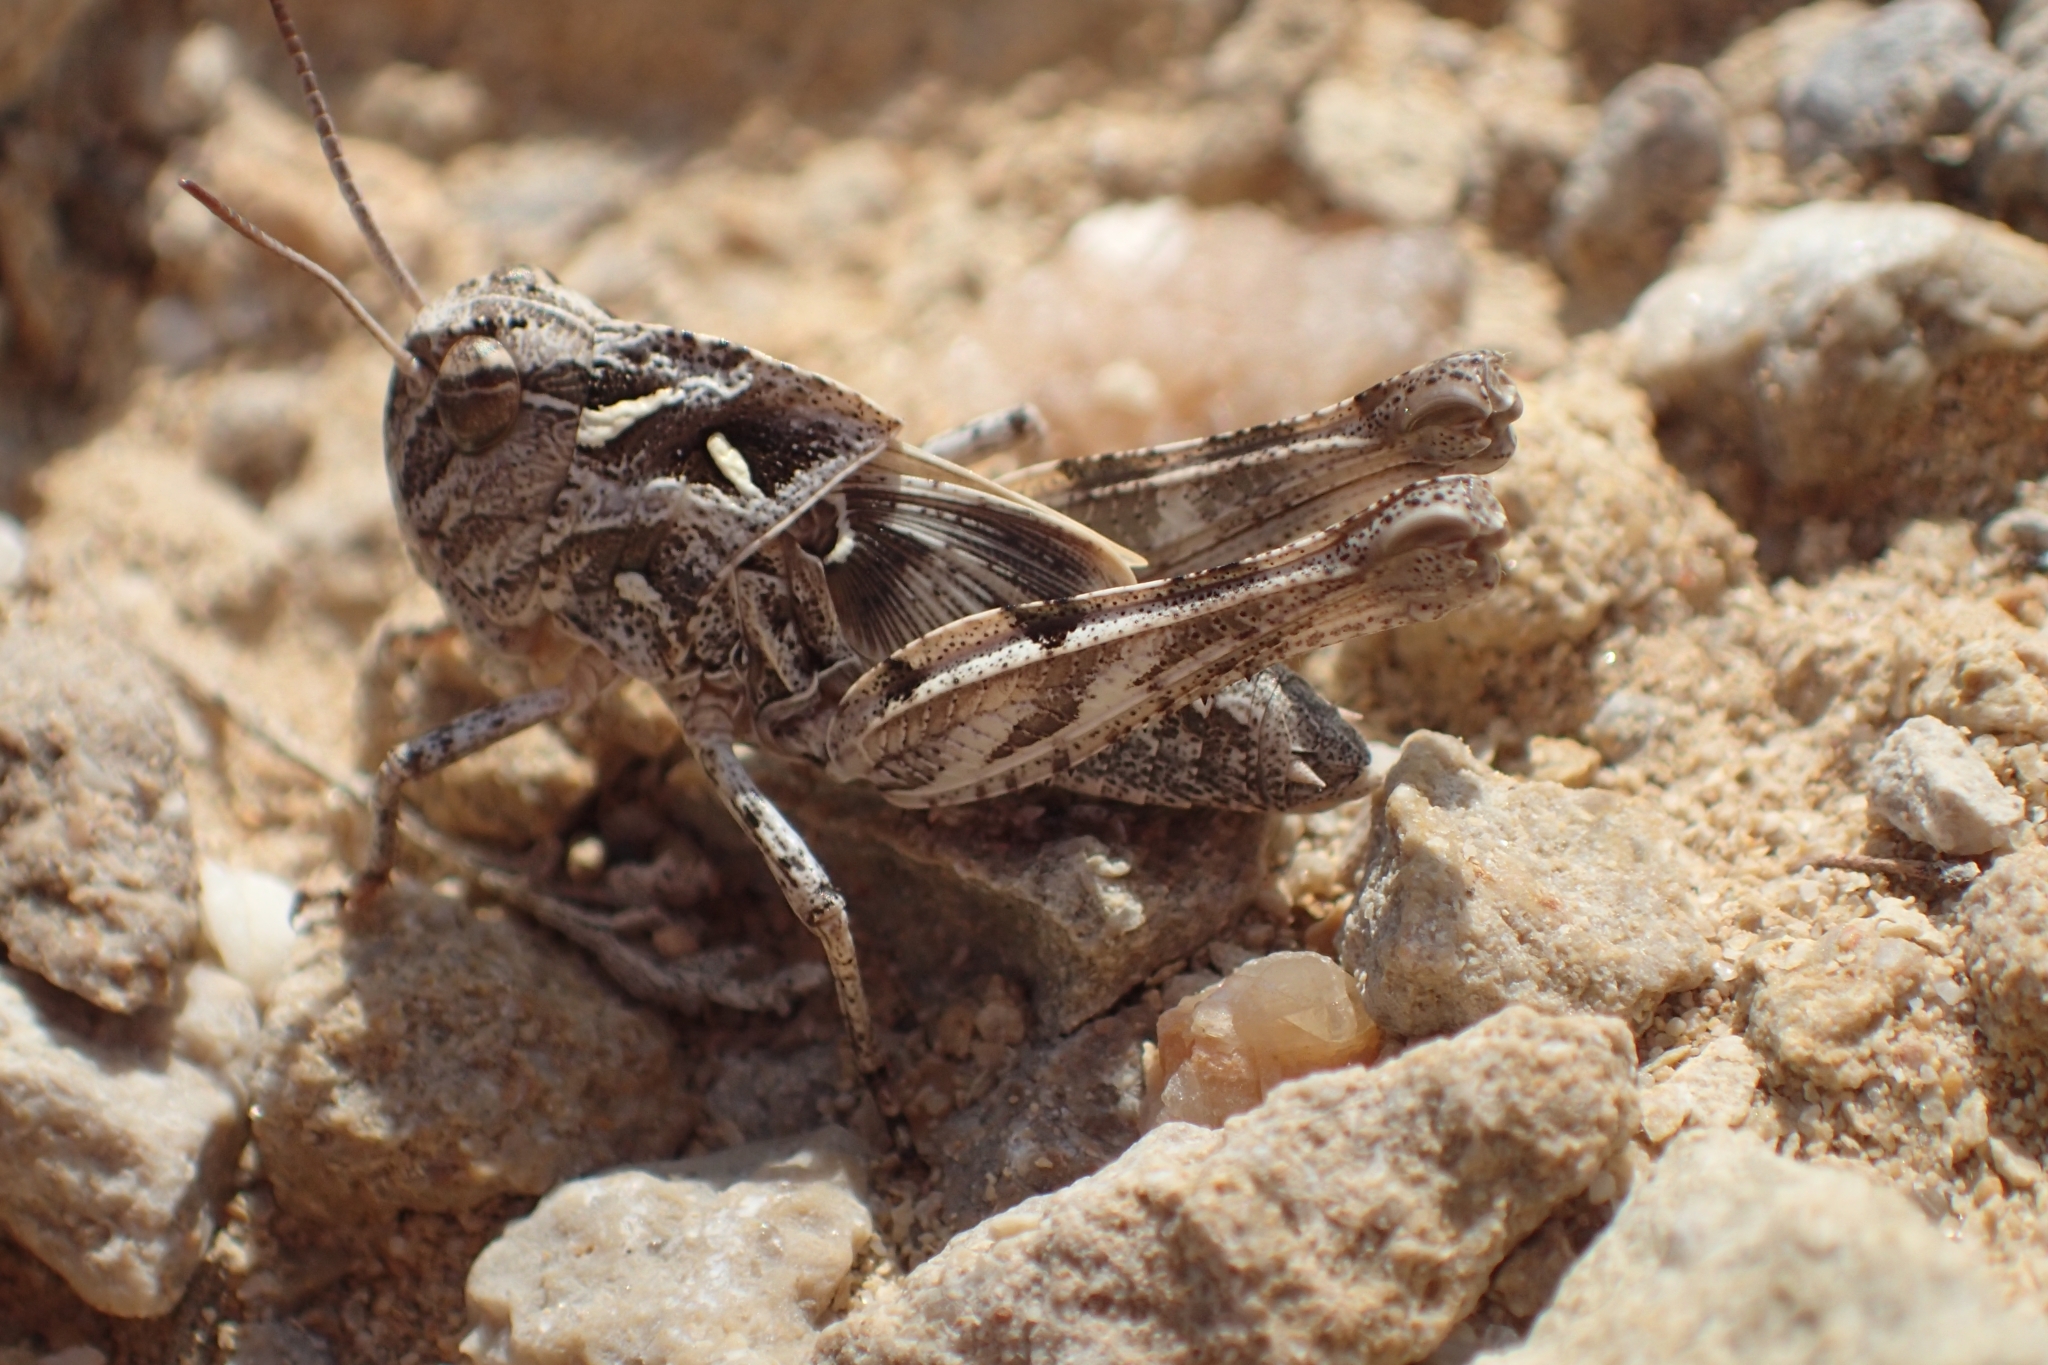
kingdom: Animalia
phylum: Arthropoda
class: Insecta
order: Orthoptera
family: Acrididae
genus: Oedaleus
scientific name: Oedaleus decorus
